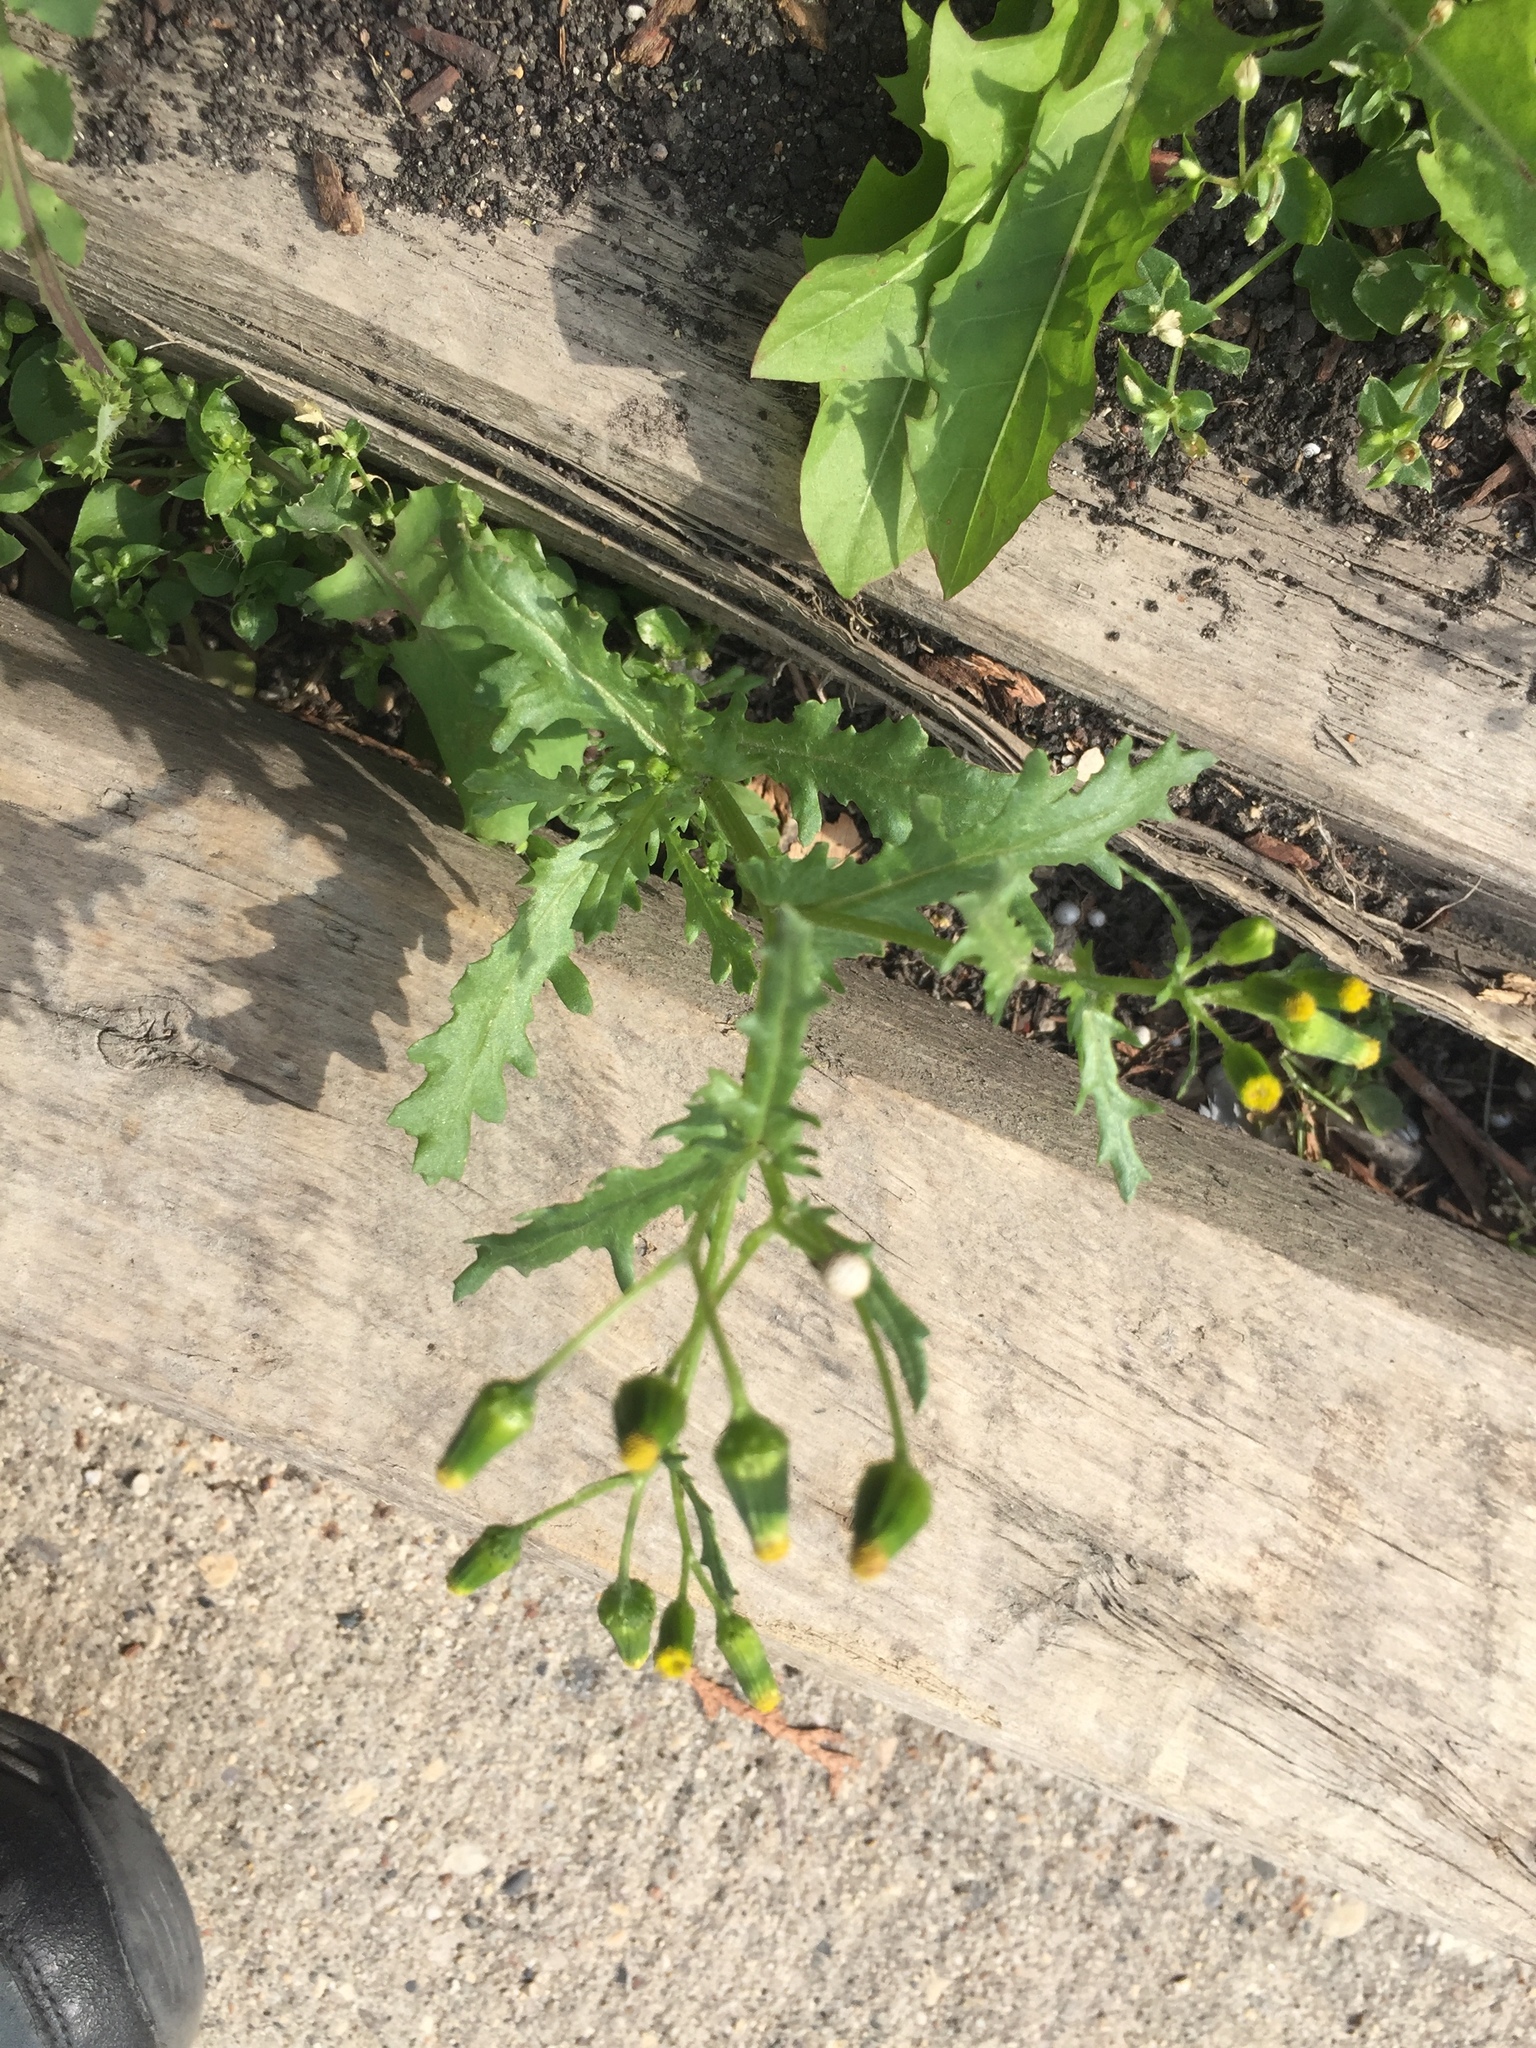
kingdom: Plantae
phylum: Tracheophyta
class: Magnoliopsida
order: Asterales
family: Asteraceae
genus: Senecio
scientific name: Senecio vulgaris
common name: Old-man-in-the-spring
